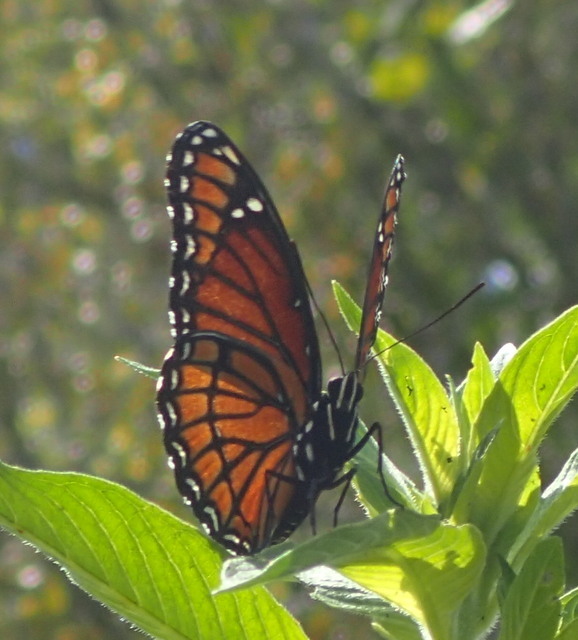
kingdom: Animalia
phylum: Arthropoda
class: Insecta
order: Lepidoptera
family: Nymphalidae
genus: Limenitis
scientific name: Limenitis archippus
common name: Viceroy
